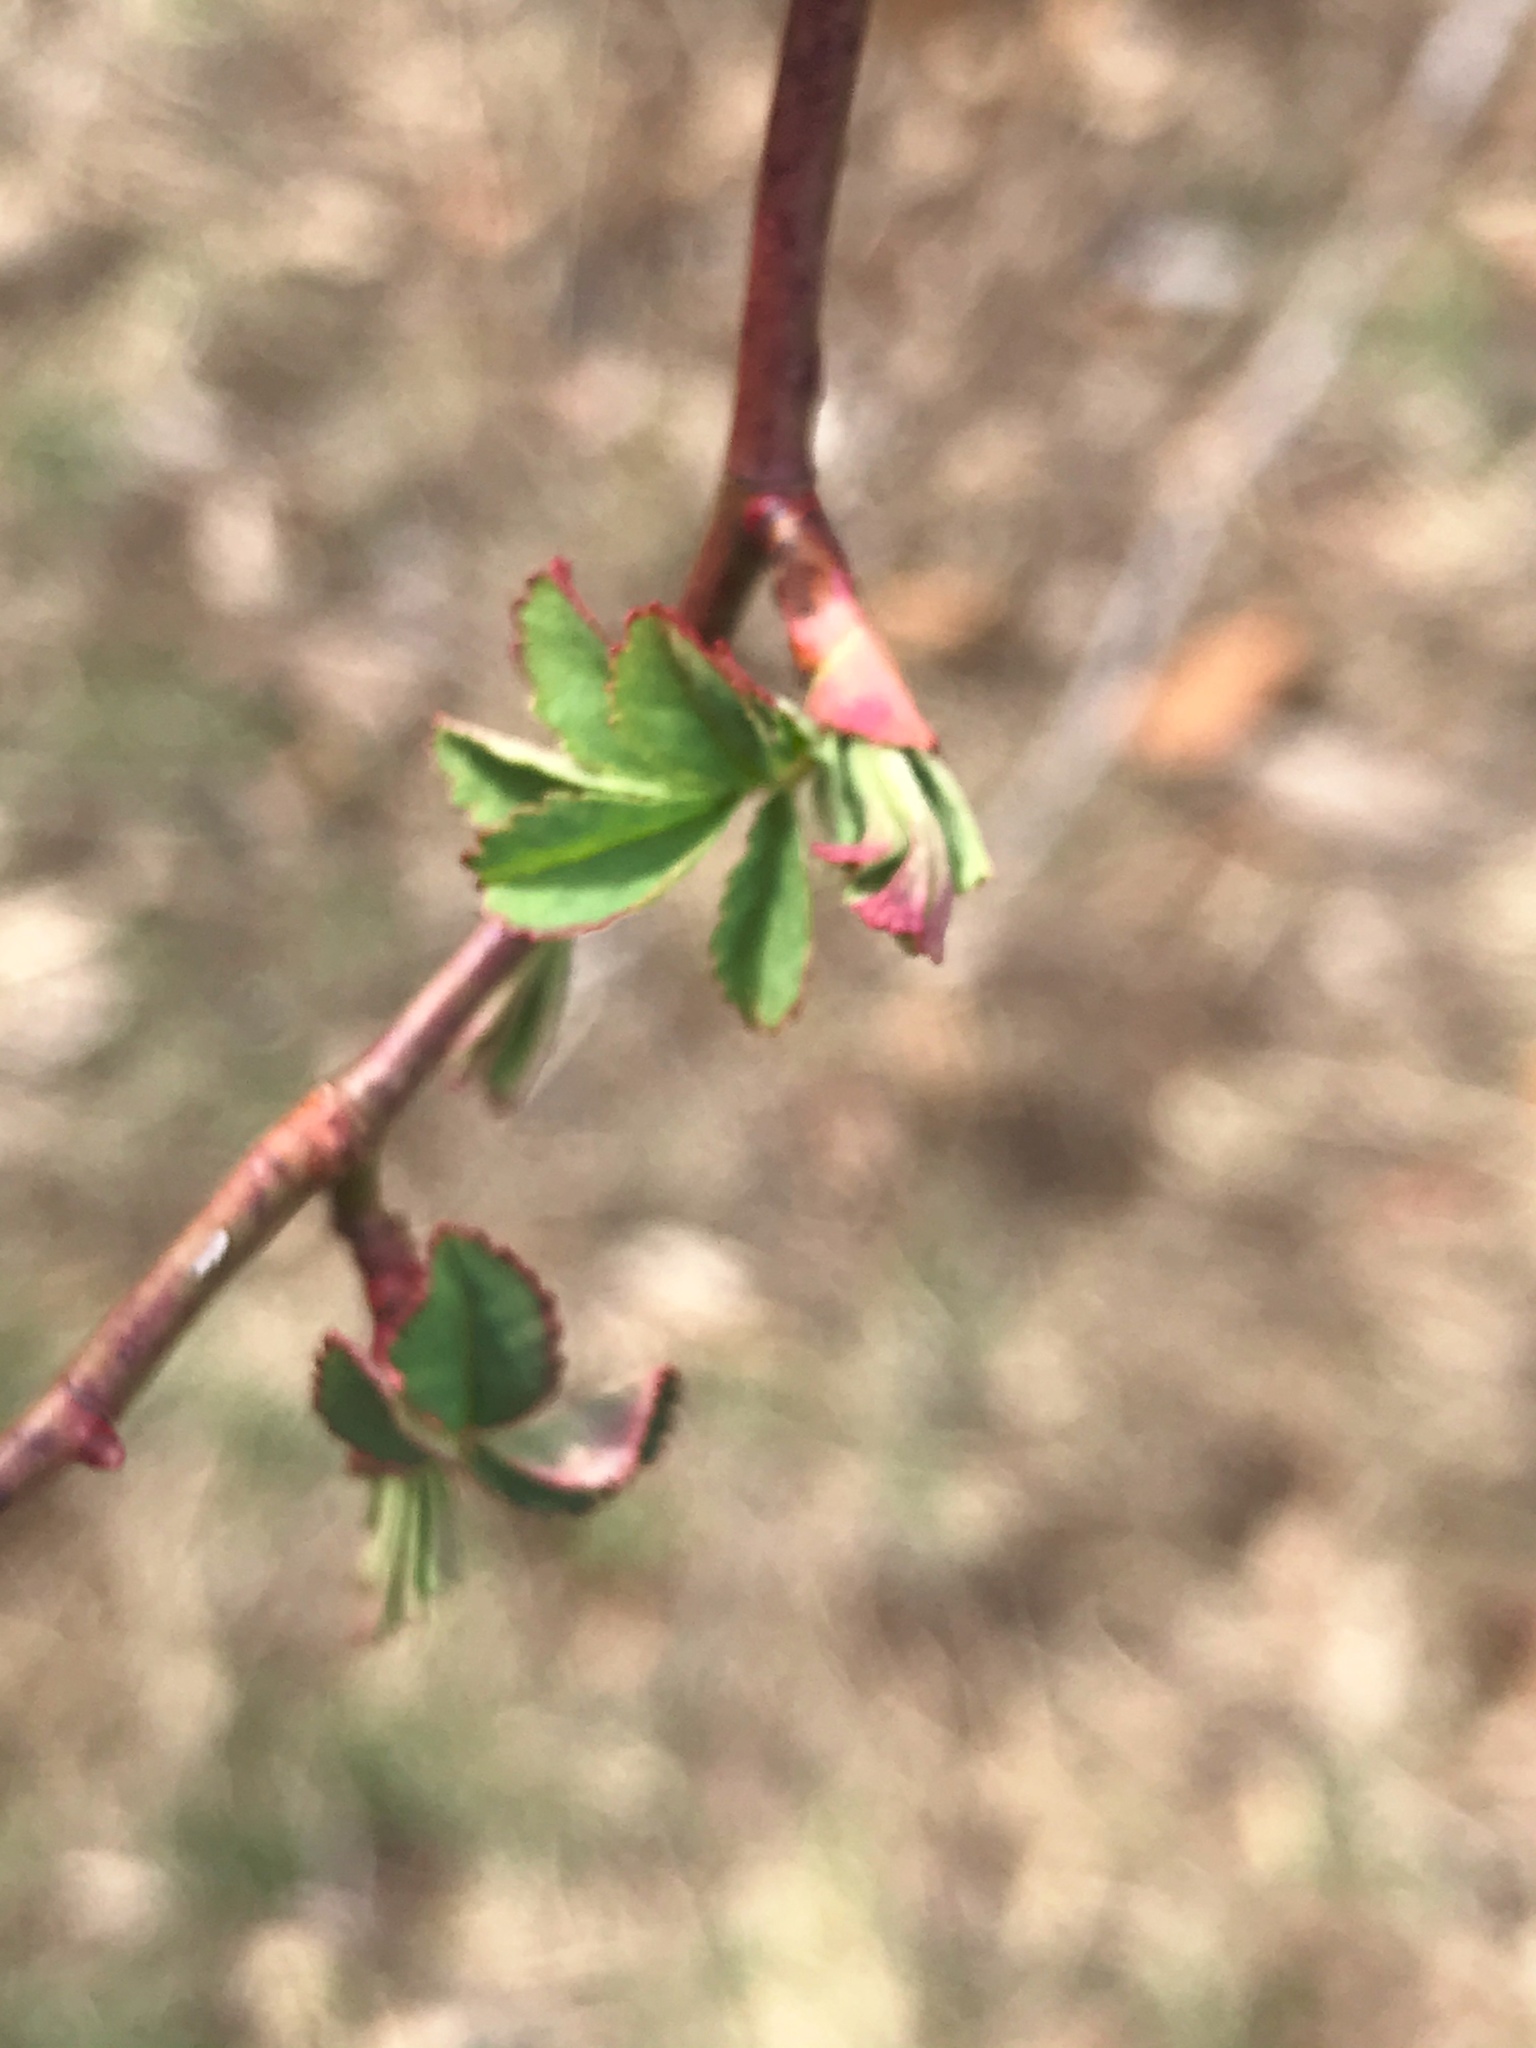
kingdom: Plantae
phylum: Tracheophyta
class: Magnoliopsida
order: Rosales
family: Rosaceae
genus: Rosa
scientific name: Rosa multiflora
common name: Multiflora rose
